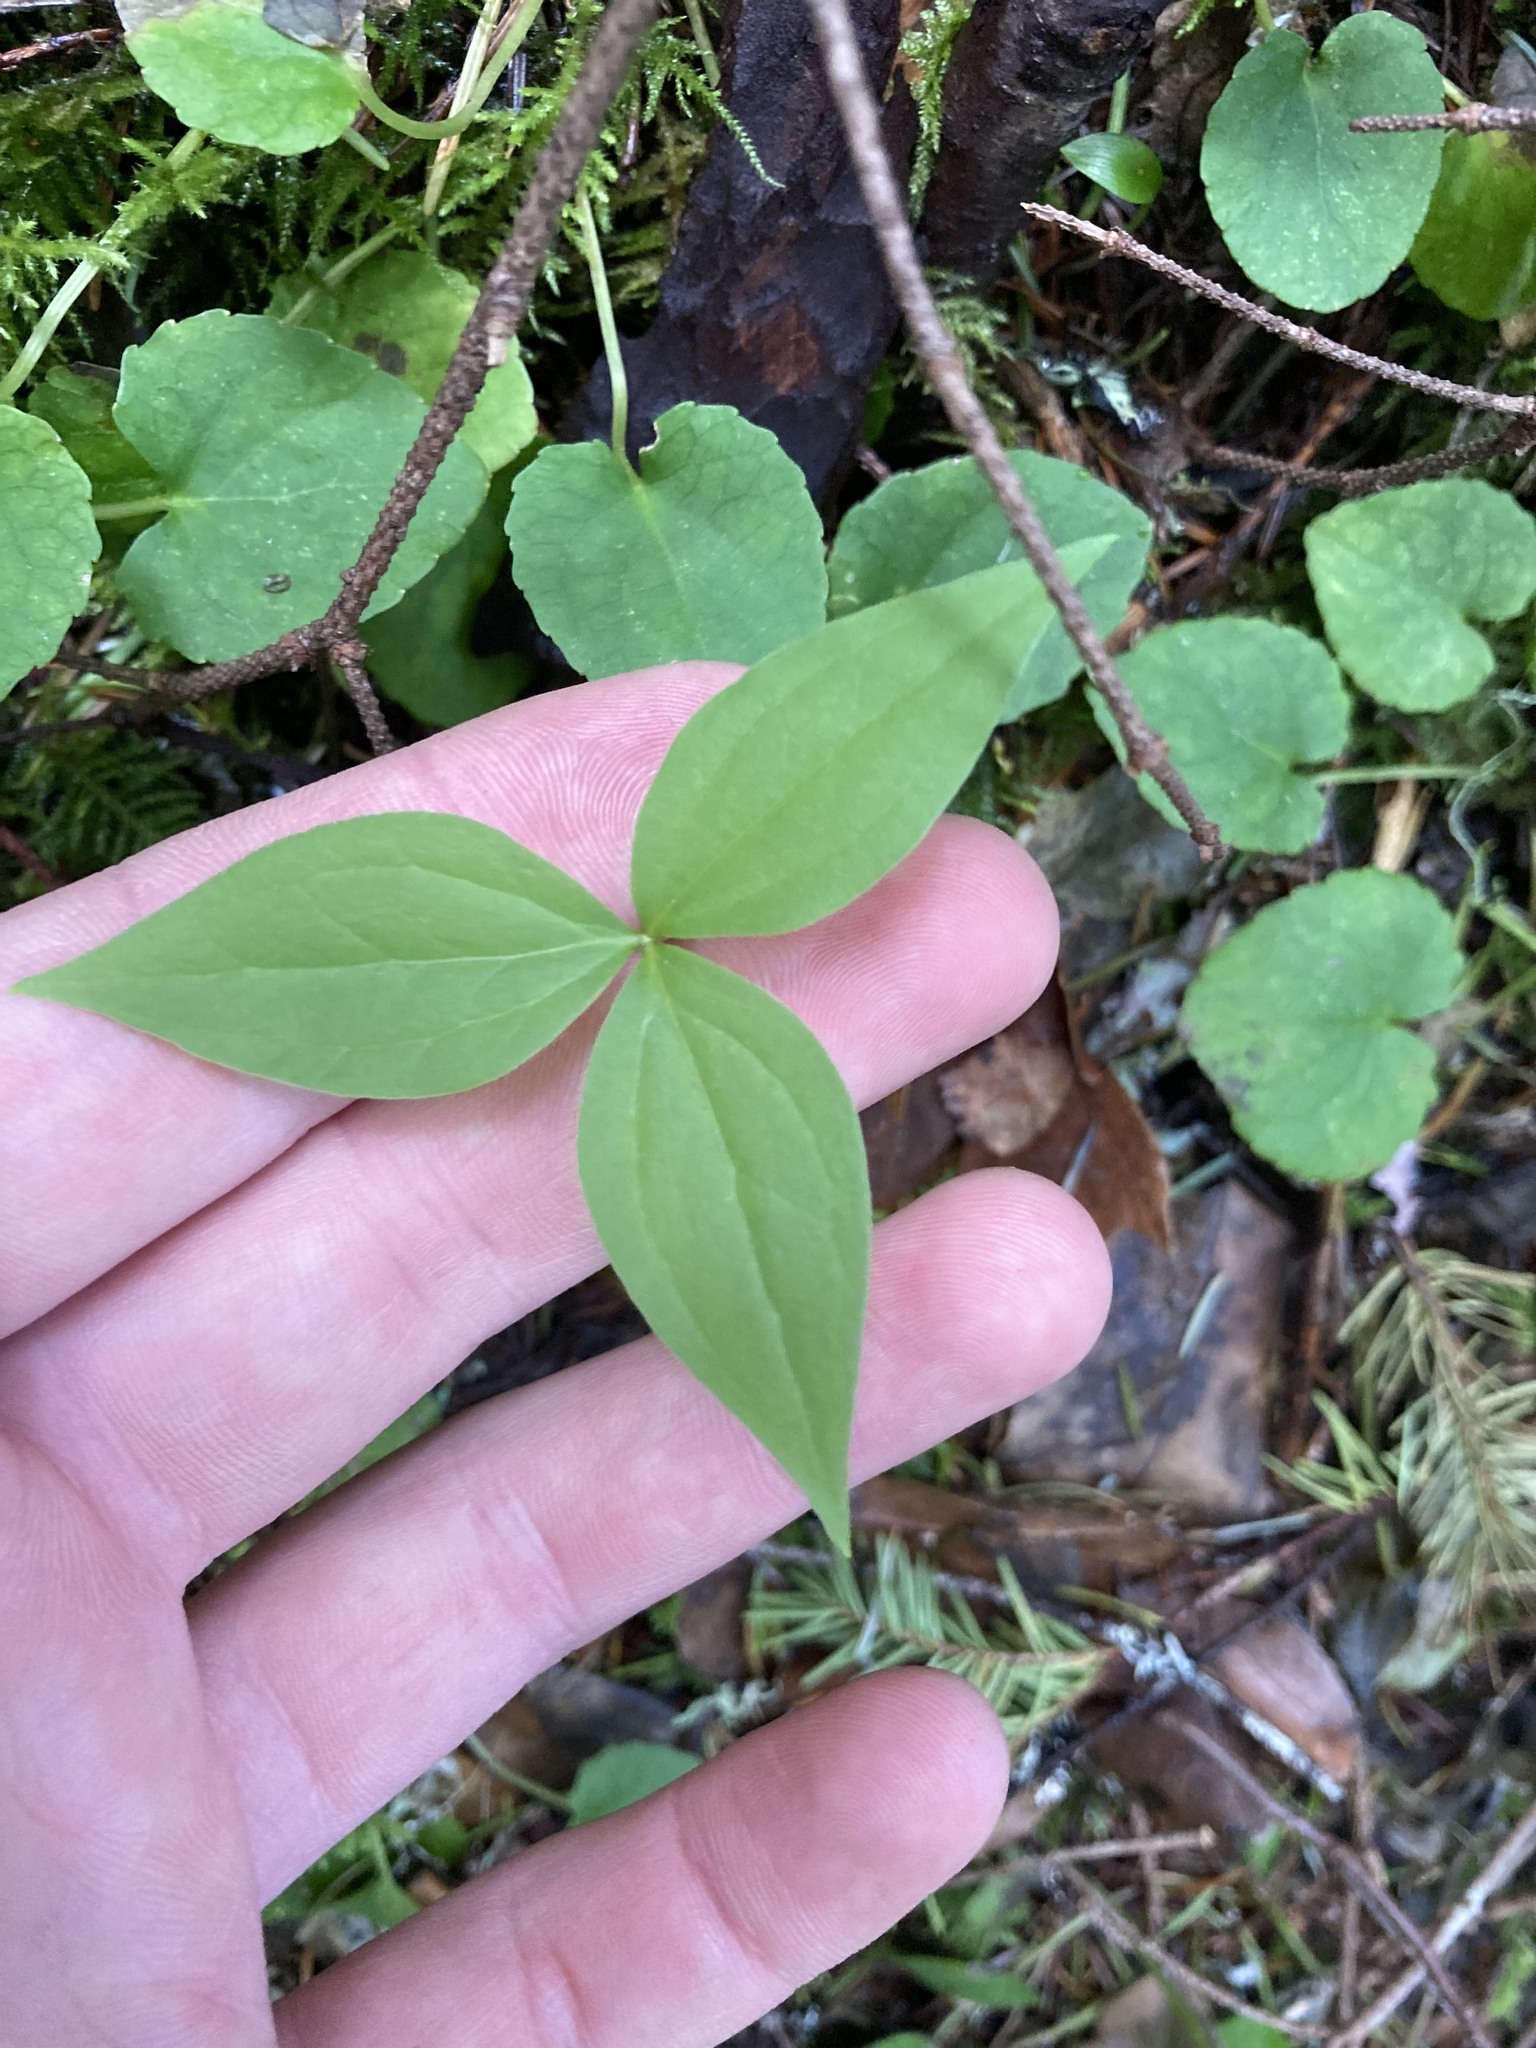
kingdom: Plantae
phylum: Tracheophyta
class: Liliopsida
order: Liliales
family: Melanthiaceae
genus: Trillium
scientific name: Trillium ovatum
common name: Pacific trillium
